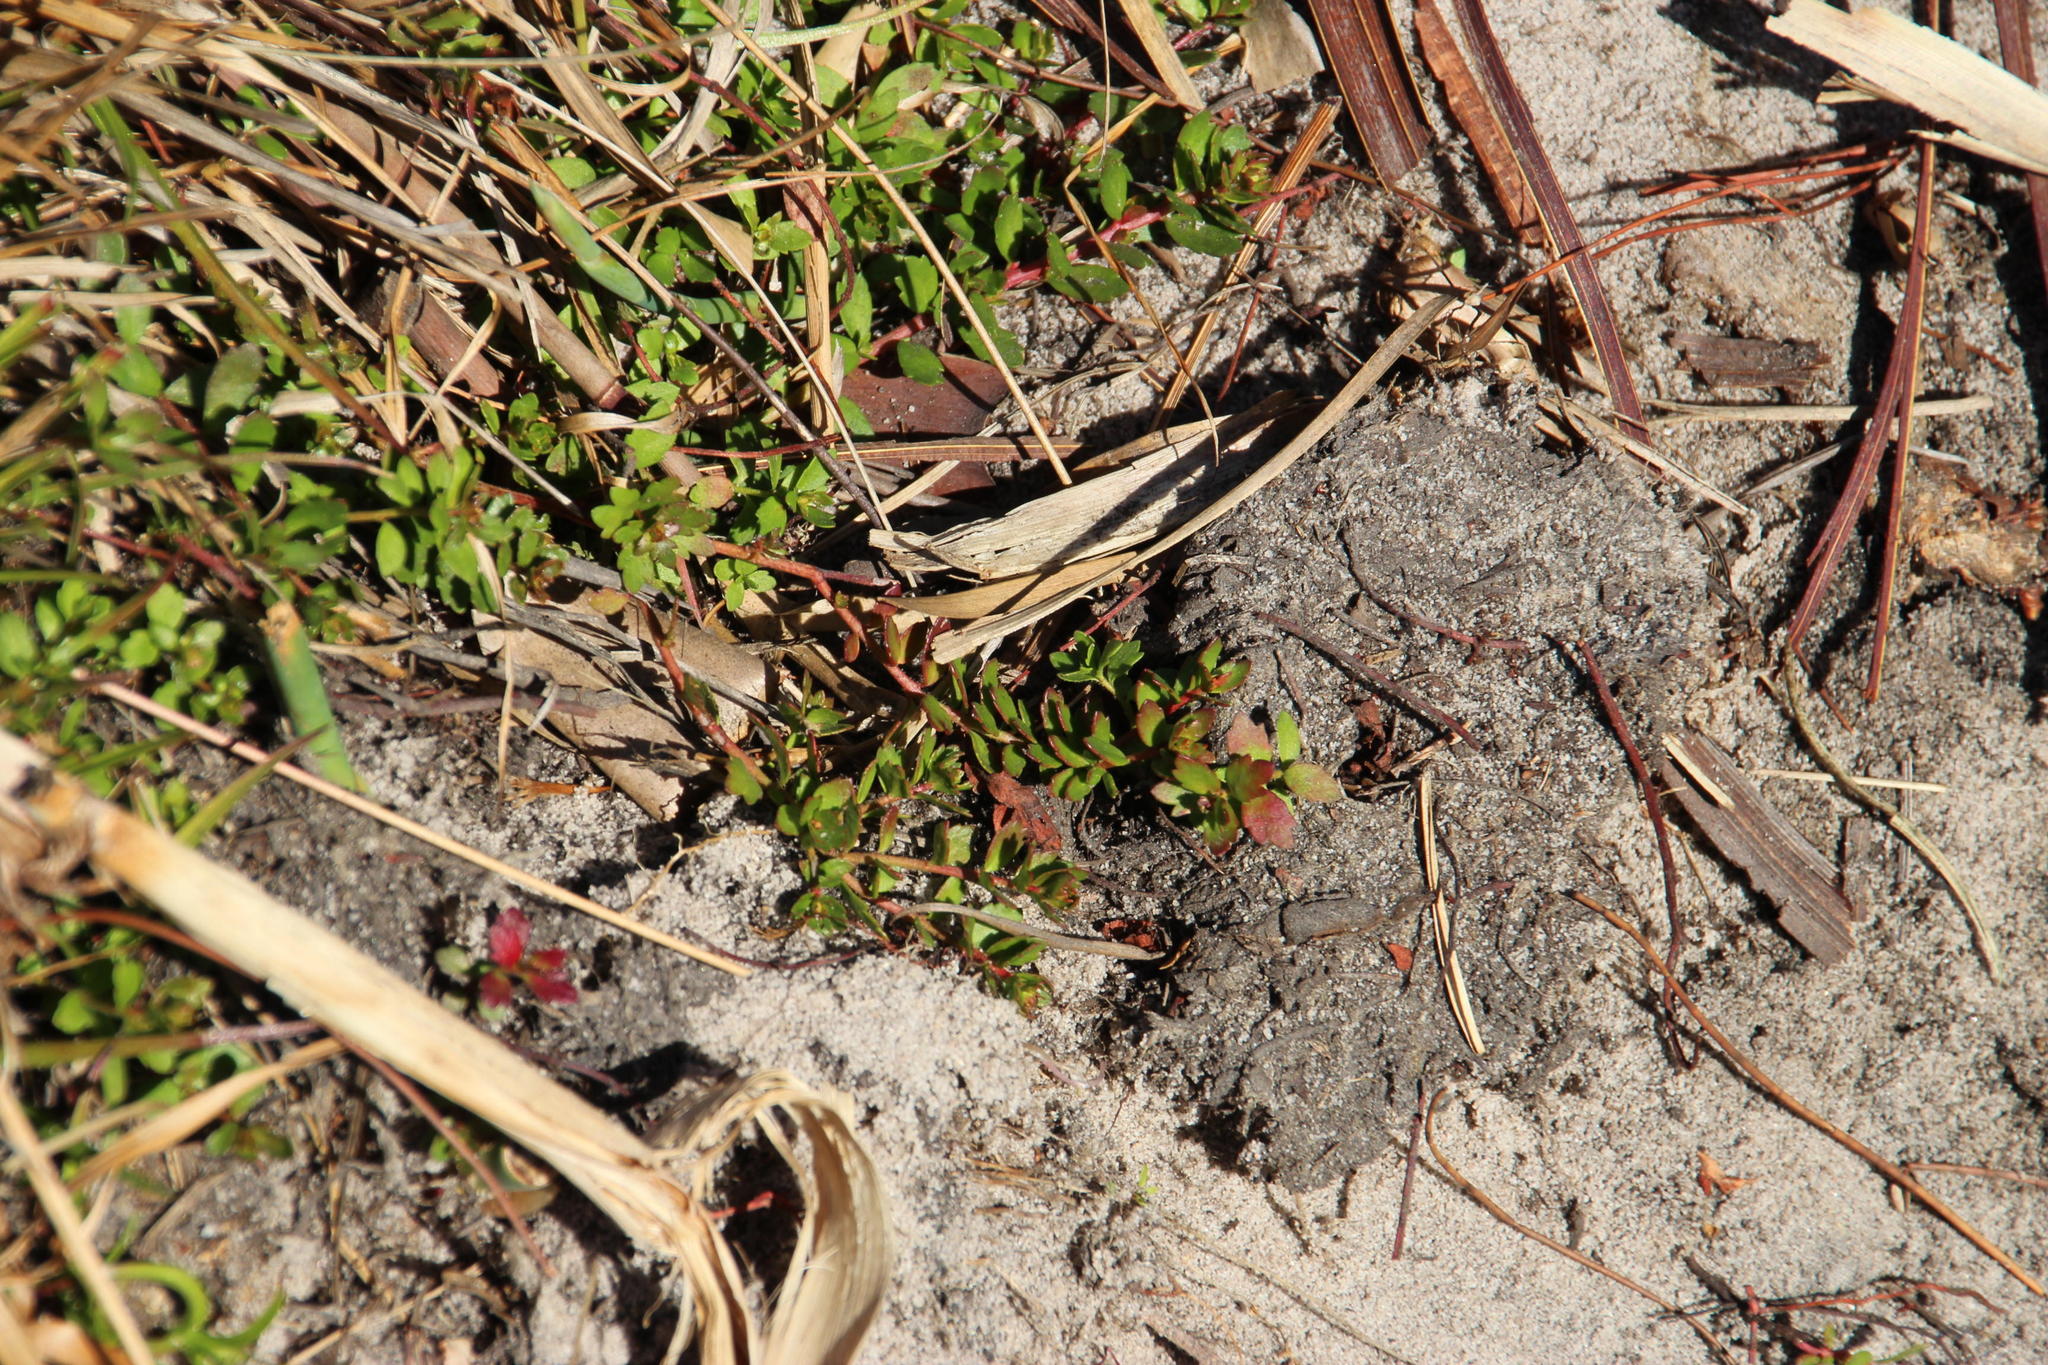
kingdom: Plantae
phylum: Tracheophyta
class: Magnoliopsida
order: Saxifragales
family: Haloragaceae
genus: Laurembergia
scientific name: Laurembergia repens
